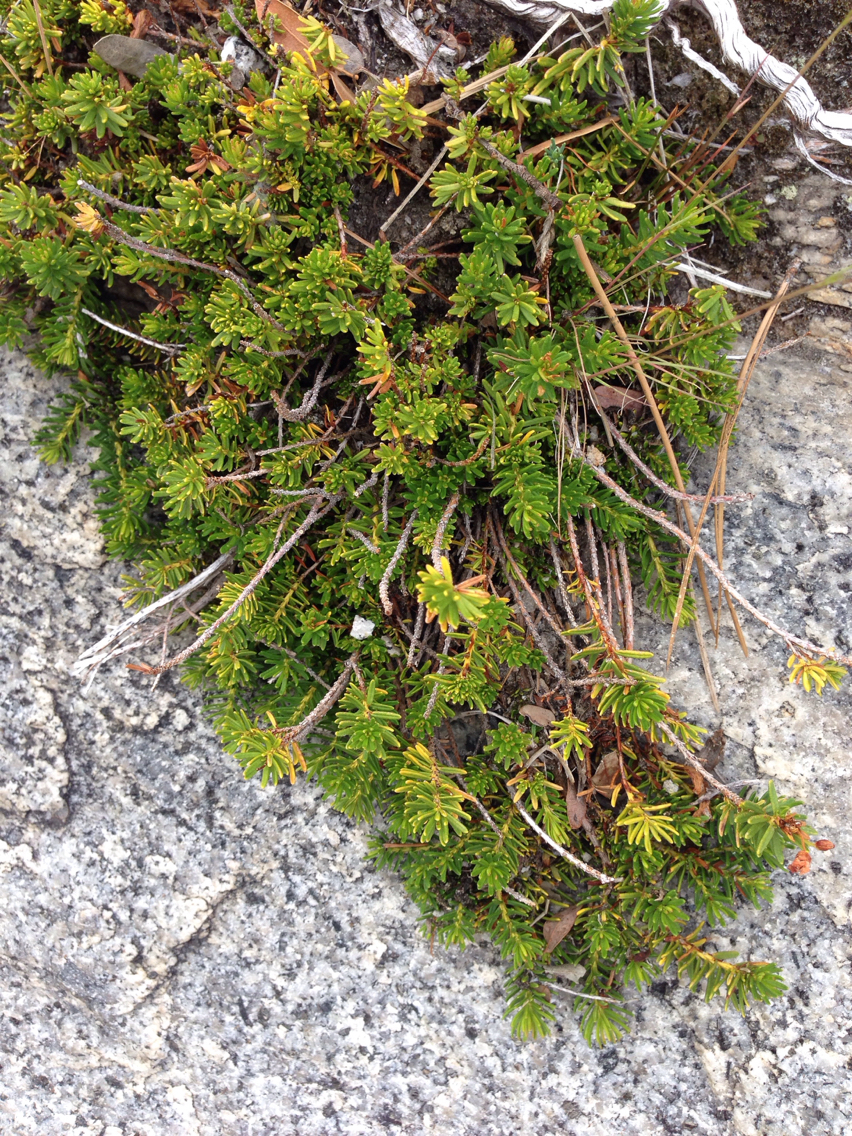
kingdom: Plantae
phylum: Tracheophyta
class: Magnoliopsida
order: Ericales
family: Ericaceae
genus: Phyllodoce
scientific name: Phyllodoce breweri
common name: Brewer's mountain-heather
